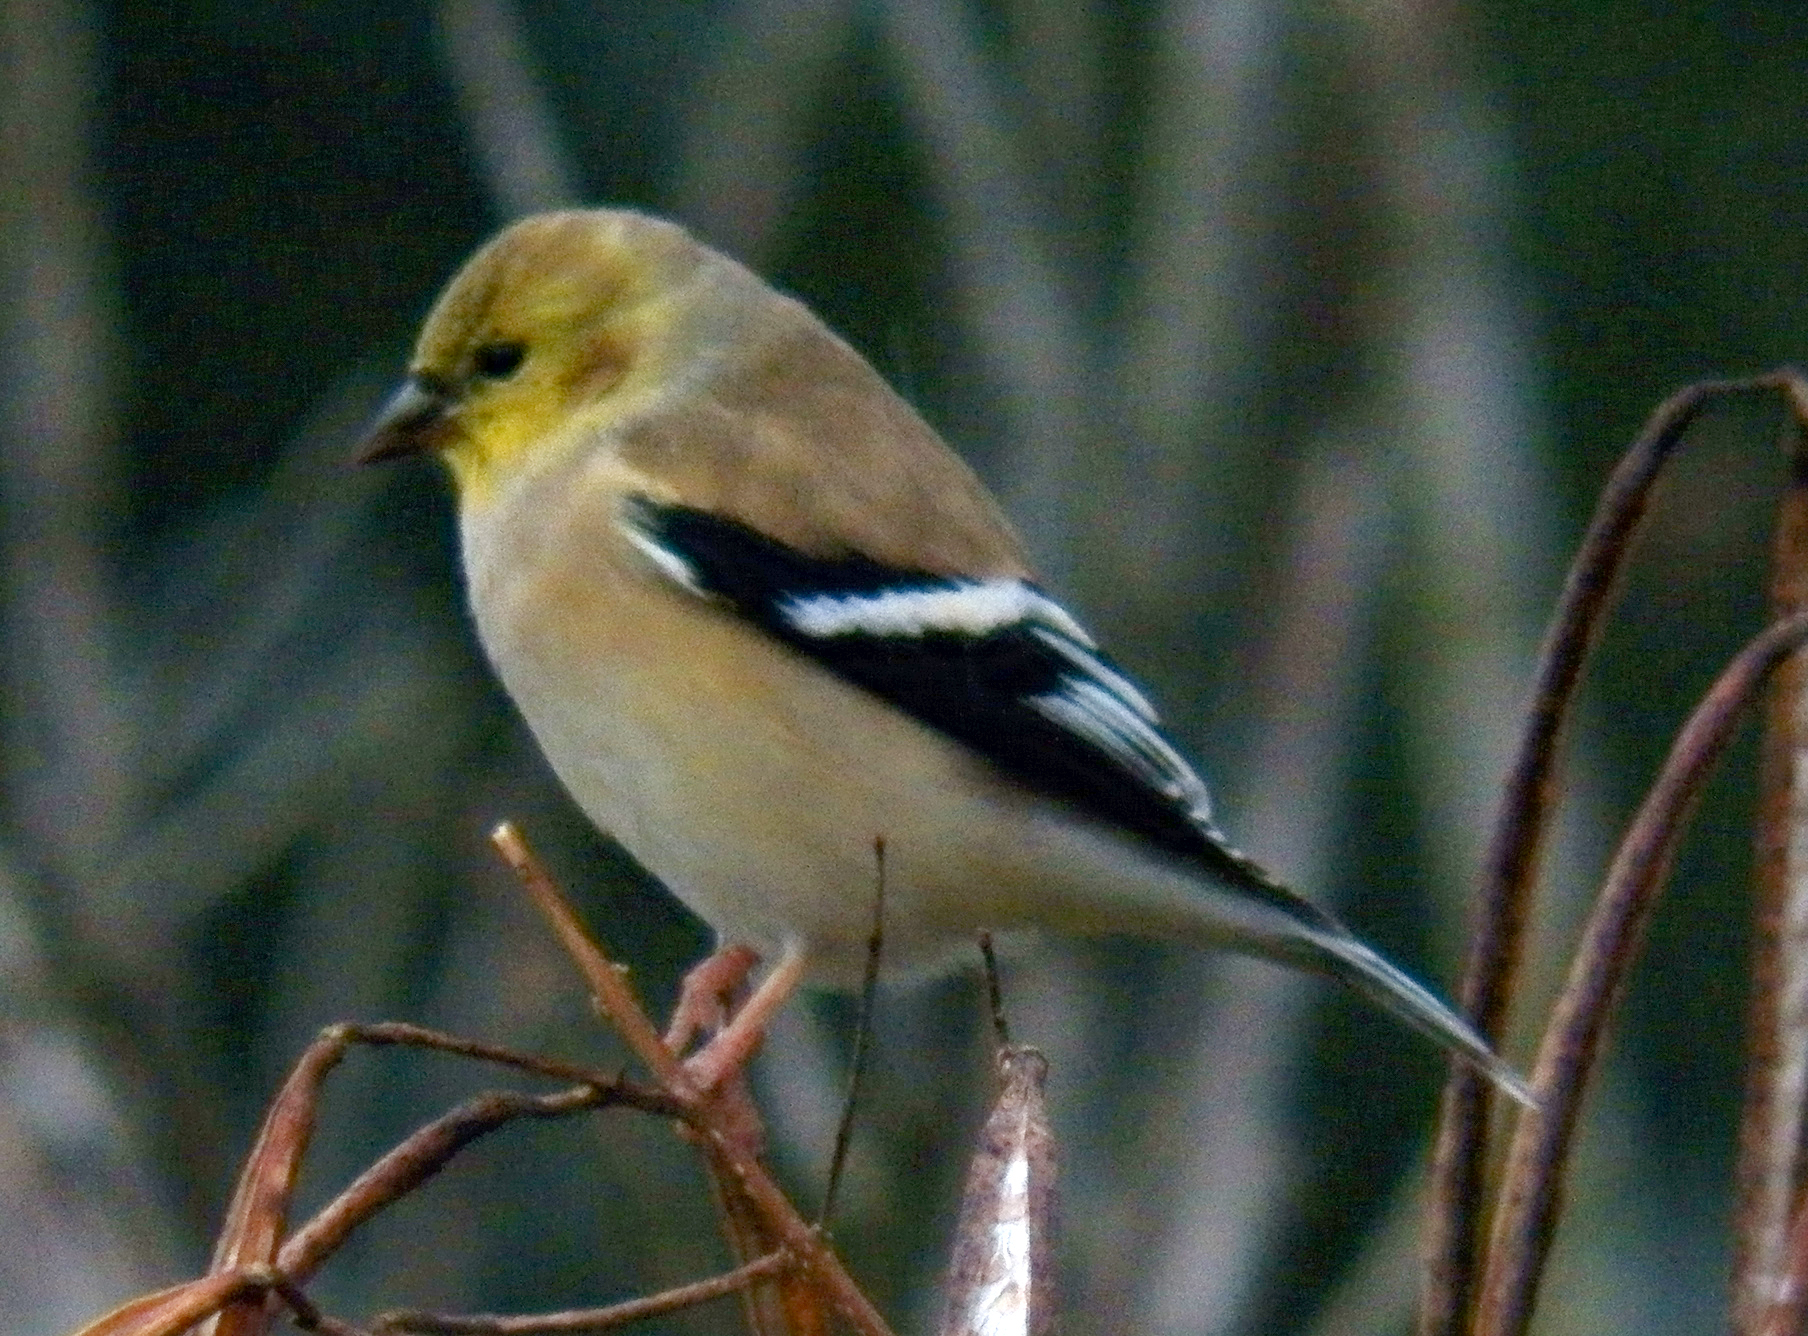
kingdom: Animalia
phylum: Chordata
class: Aves
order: Passeriformes
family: Fringillidae
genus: Spinus
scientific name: Spinus tristis
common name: American goldfinch
